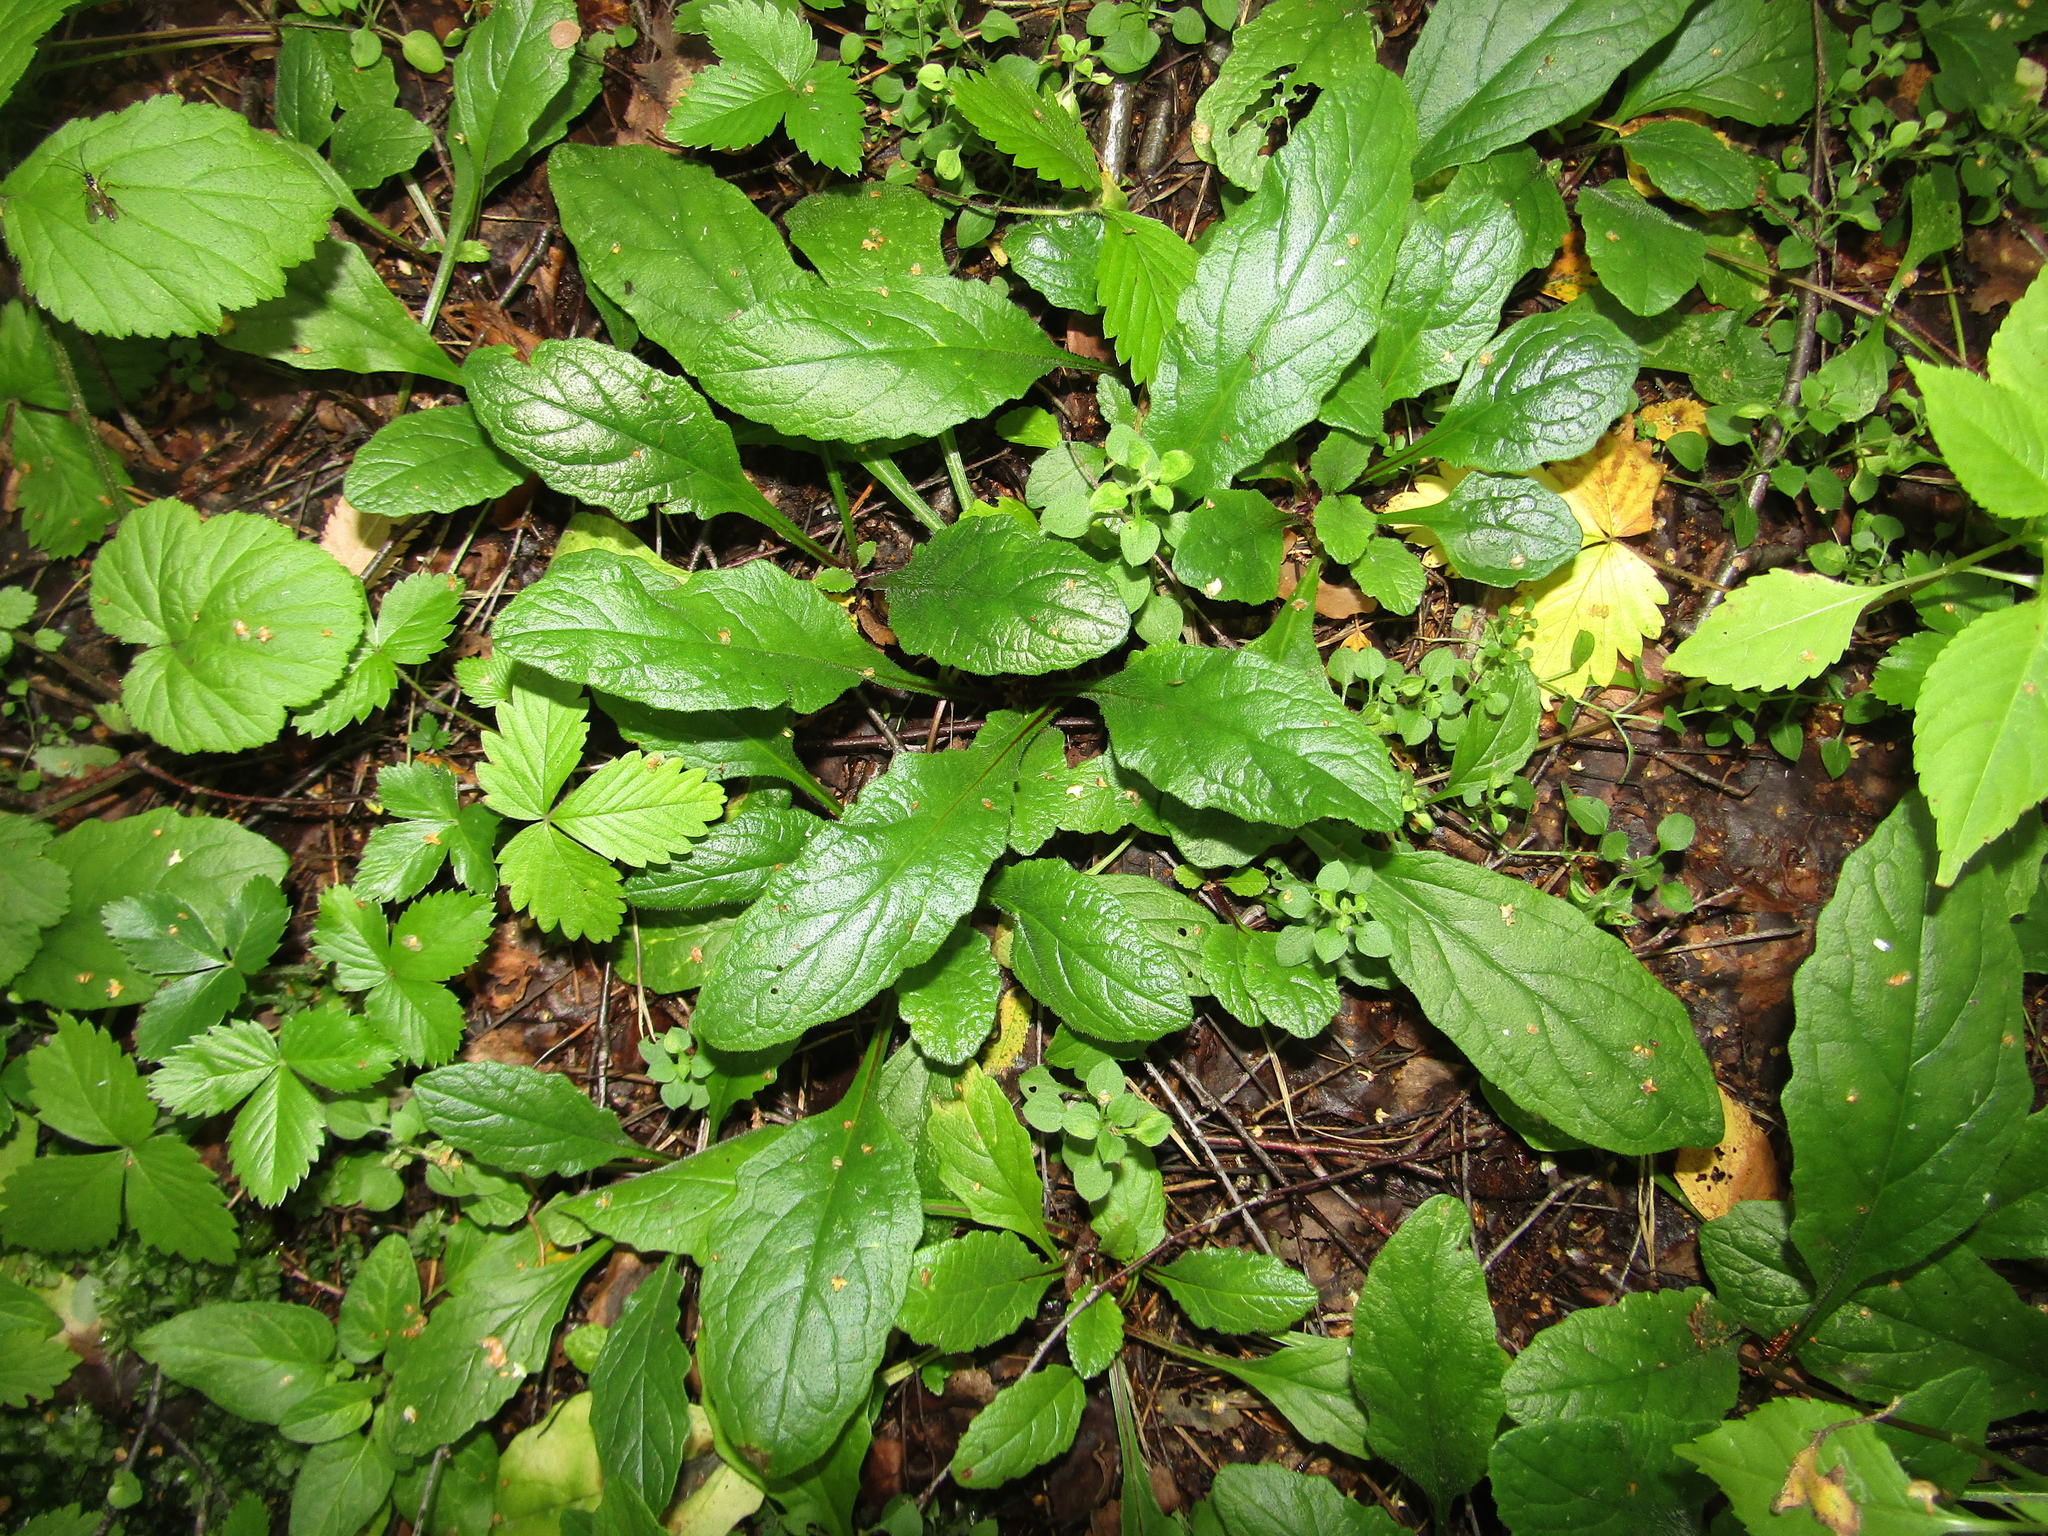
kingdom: Plantae
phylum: Tracheophyta
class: Magnoliopsida
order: Lamiales
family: Lamiaceae
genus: Ajuga
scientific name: Ajuga reptans
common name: Bugle
